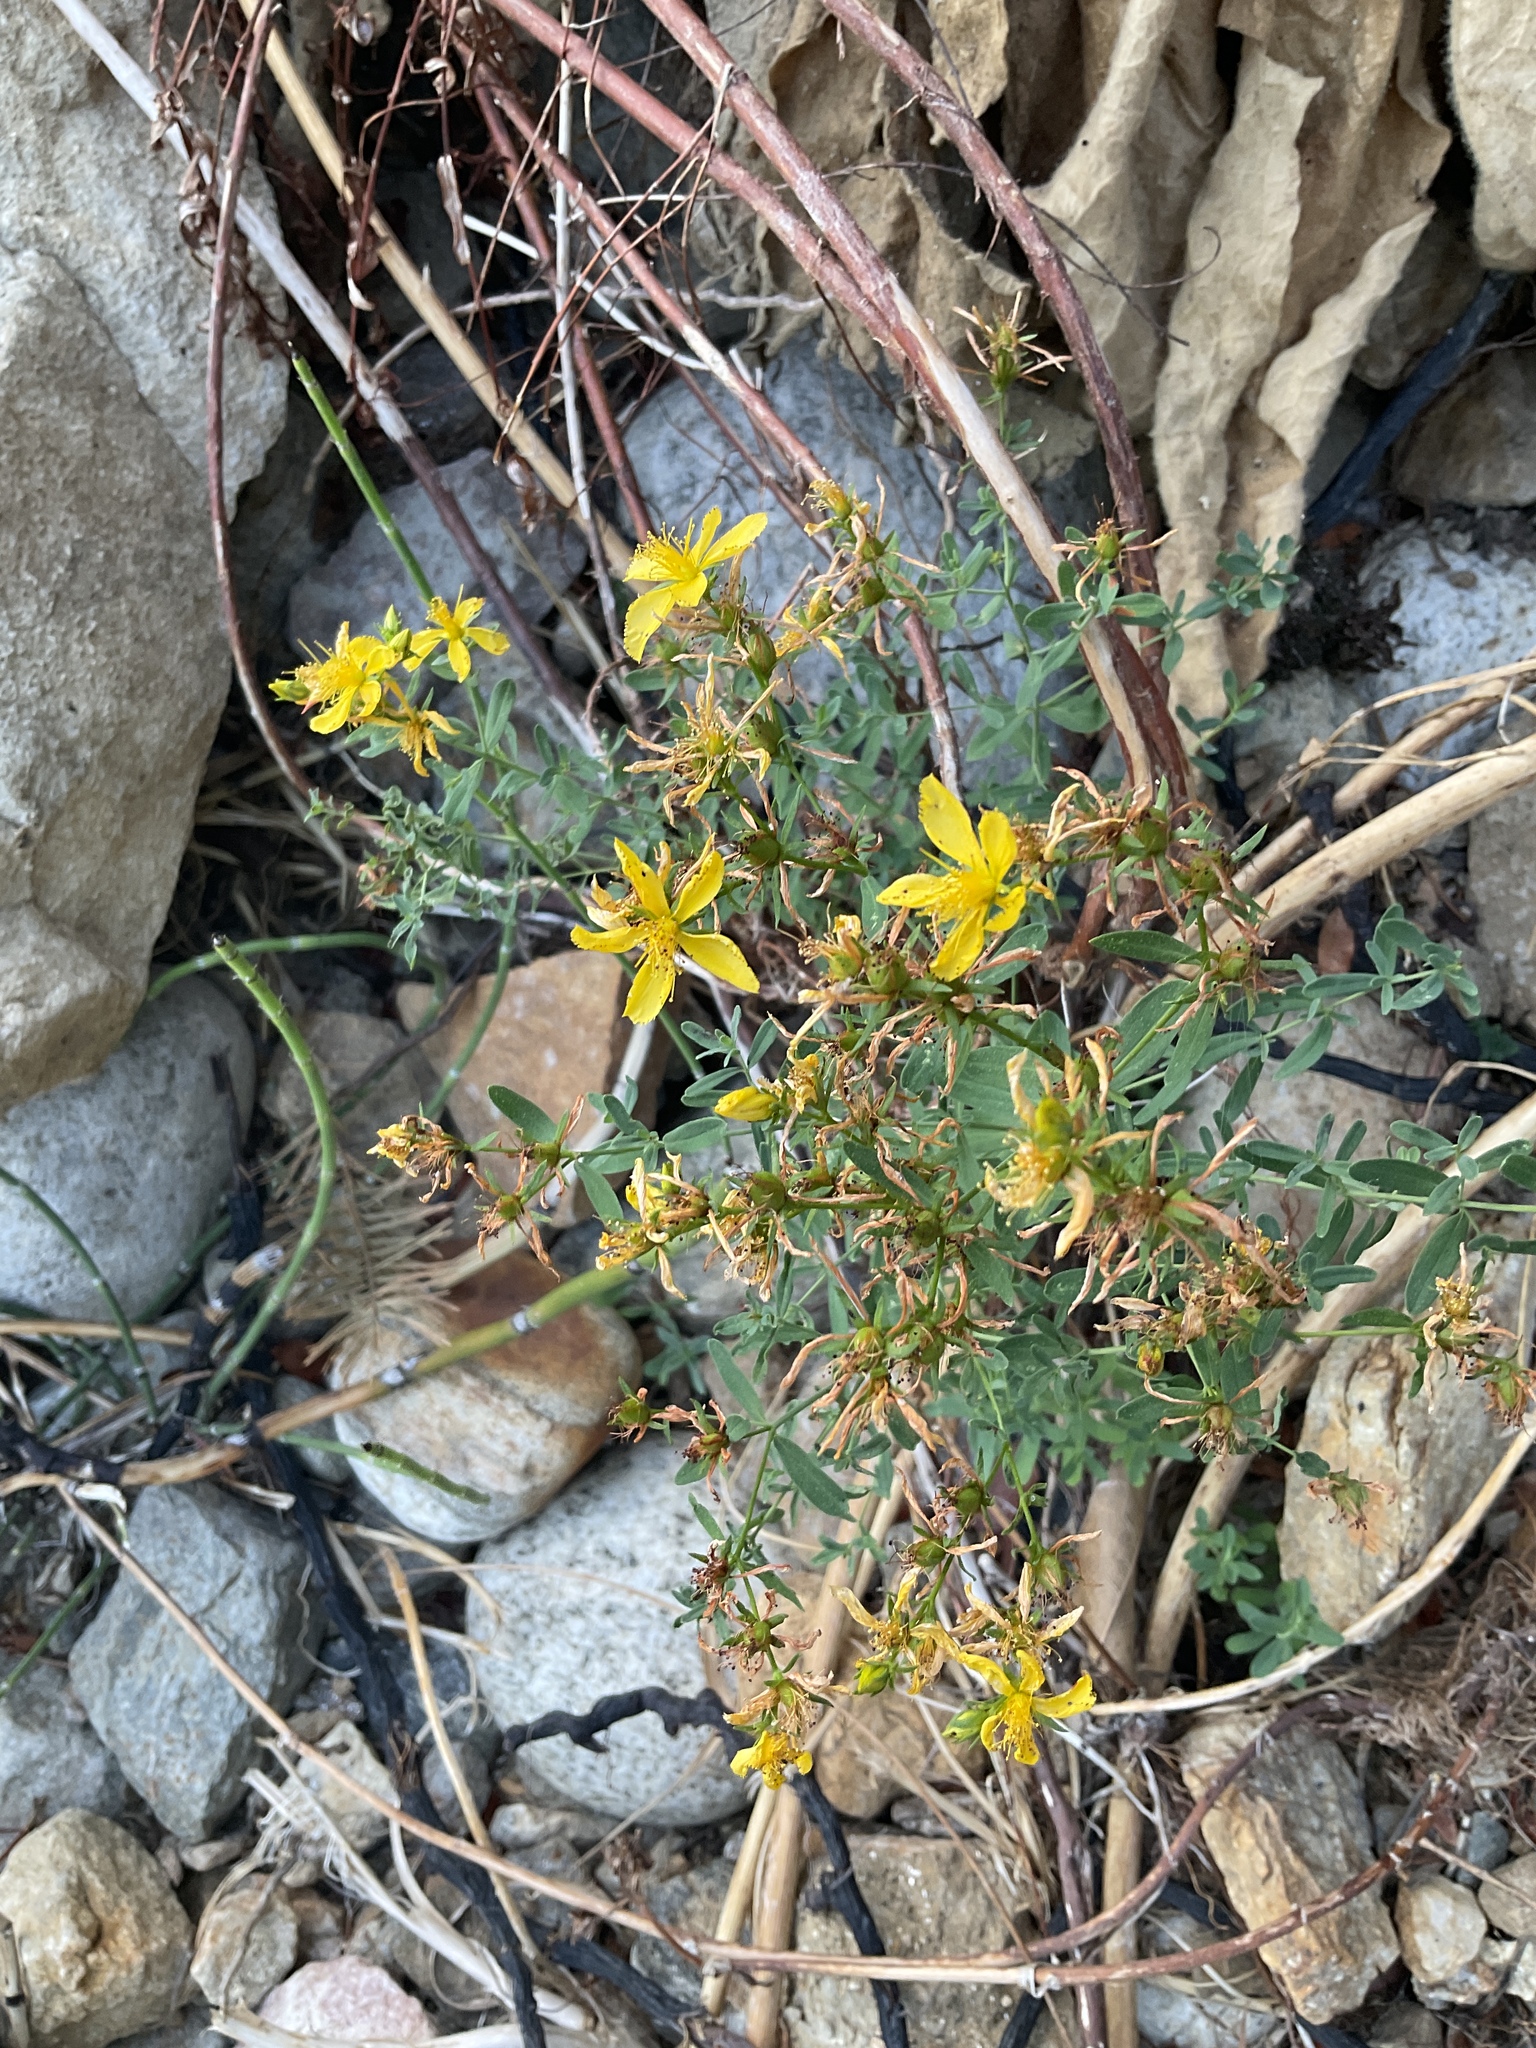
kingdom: Plantae
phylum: Tracheophyta
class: Magnoliopsida
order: Malpighiales
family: Hypericaceae
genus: Hypericum
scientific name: Hypericum perforatum
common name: Common st. johnswort
